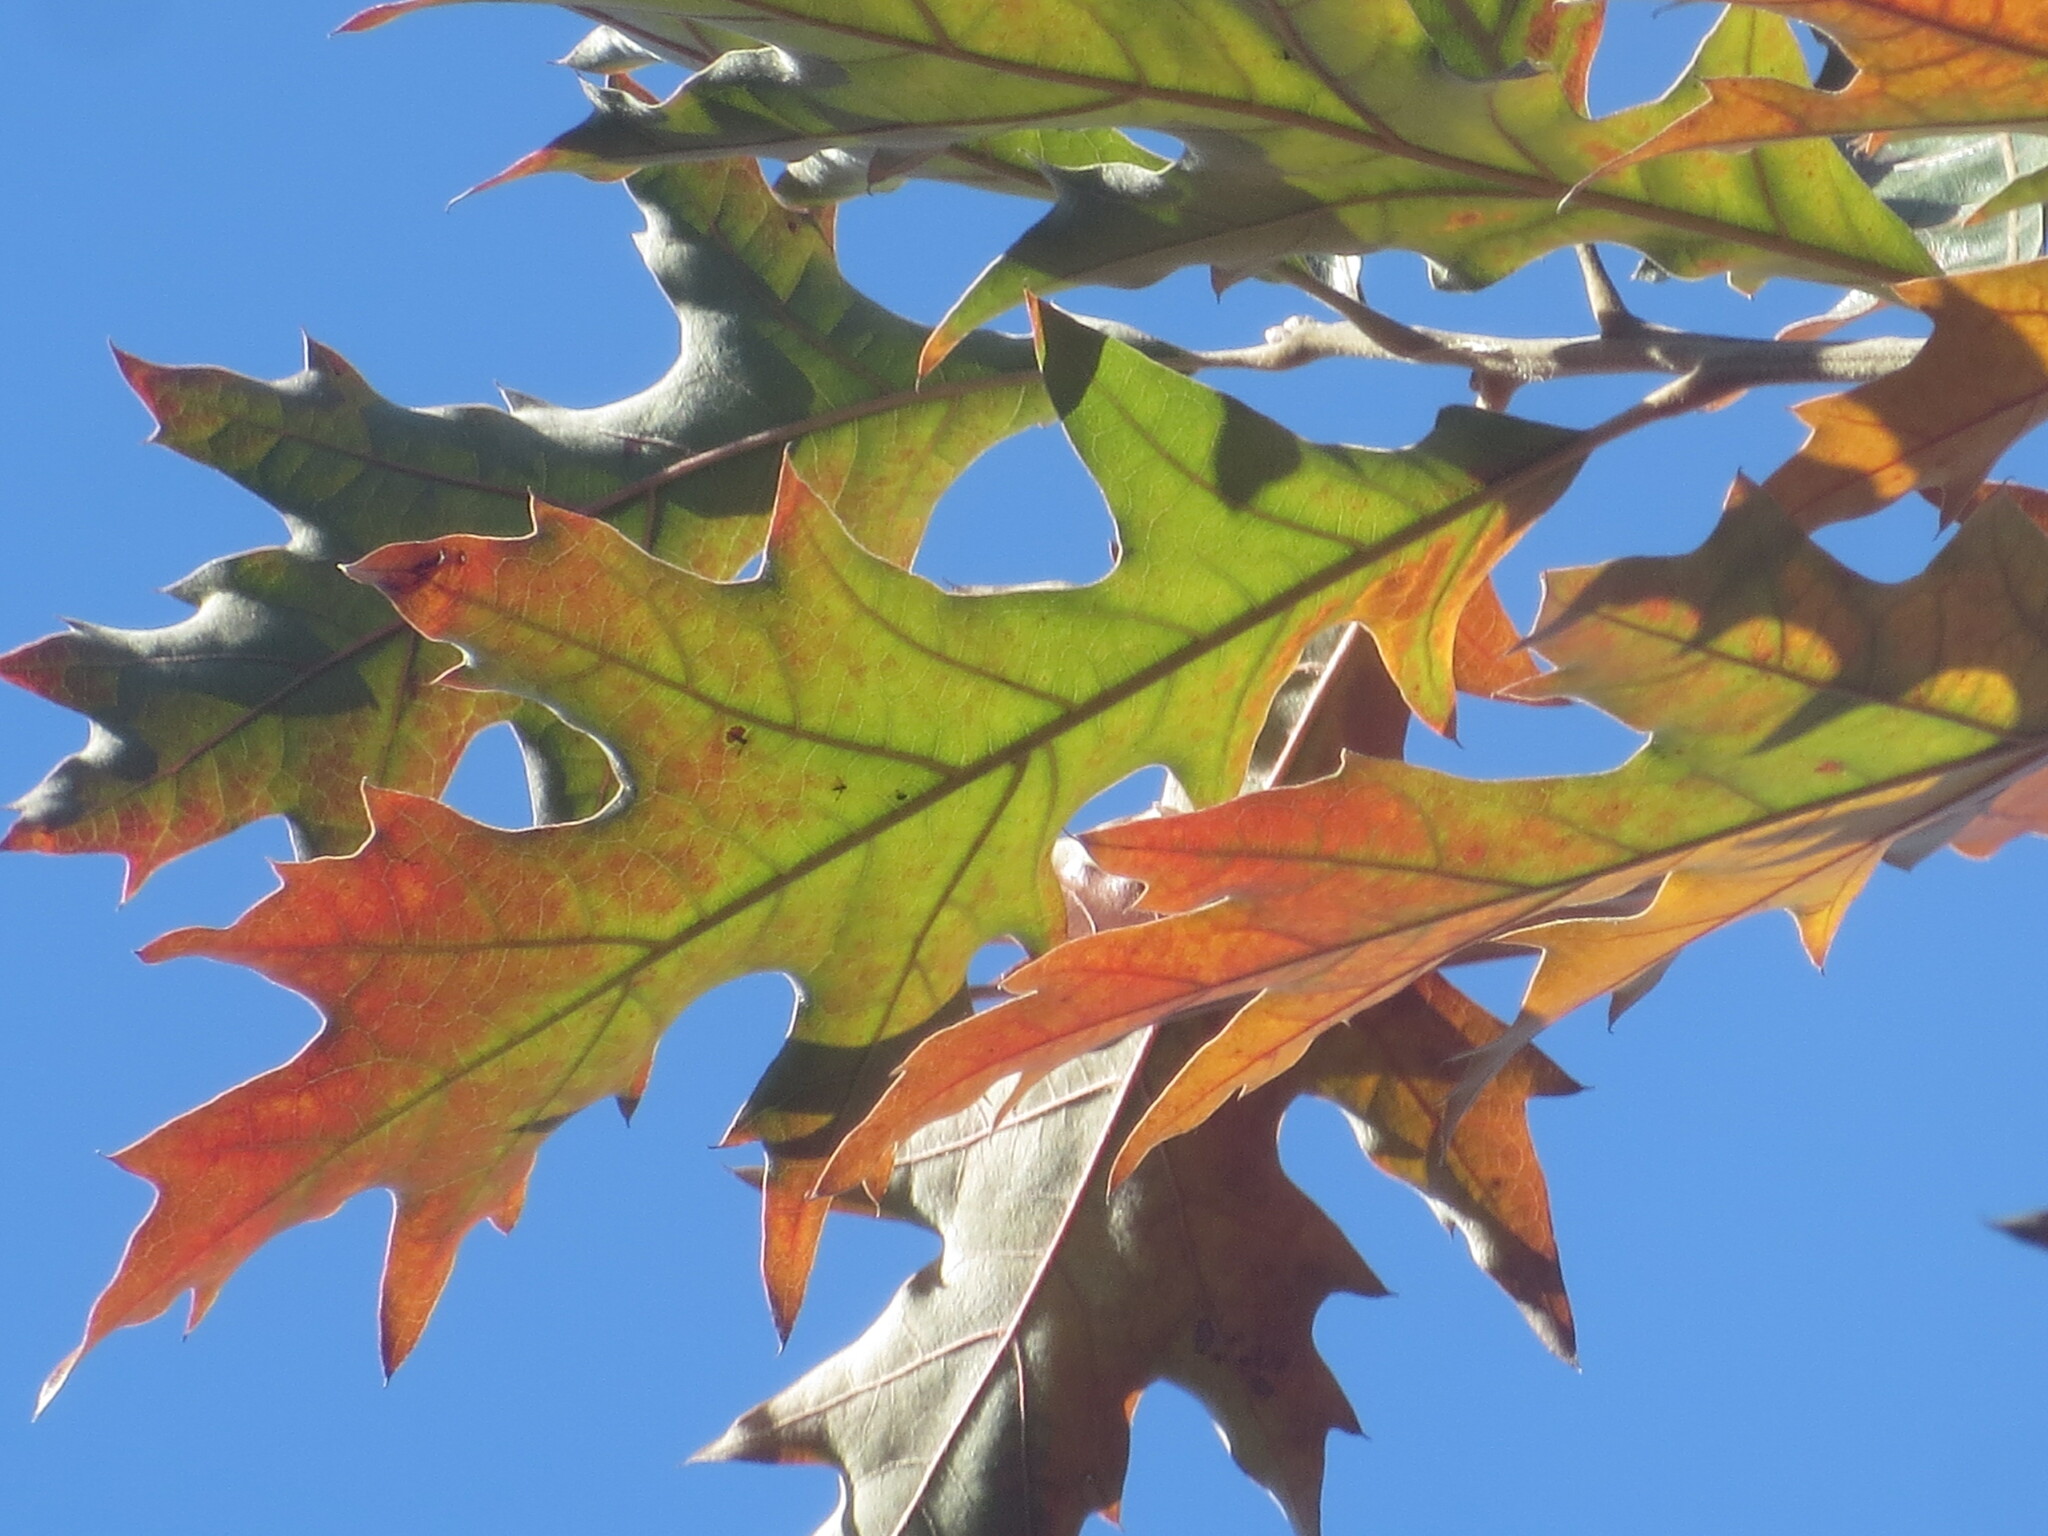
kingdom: Plantae
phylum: Tracheophyta
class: Magnoliopsida
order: Fagales
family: Fagaceae
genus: Quercus
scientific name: Quercus pagoda
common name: Cherrybark oak
